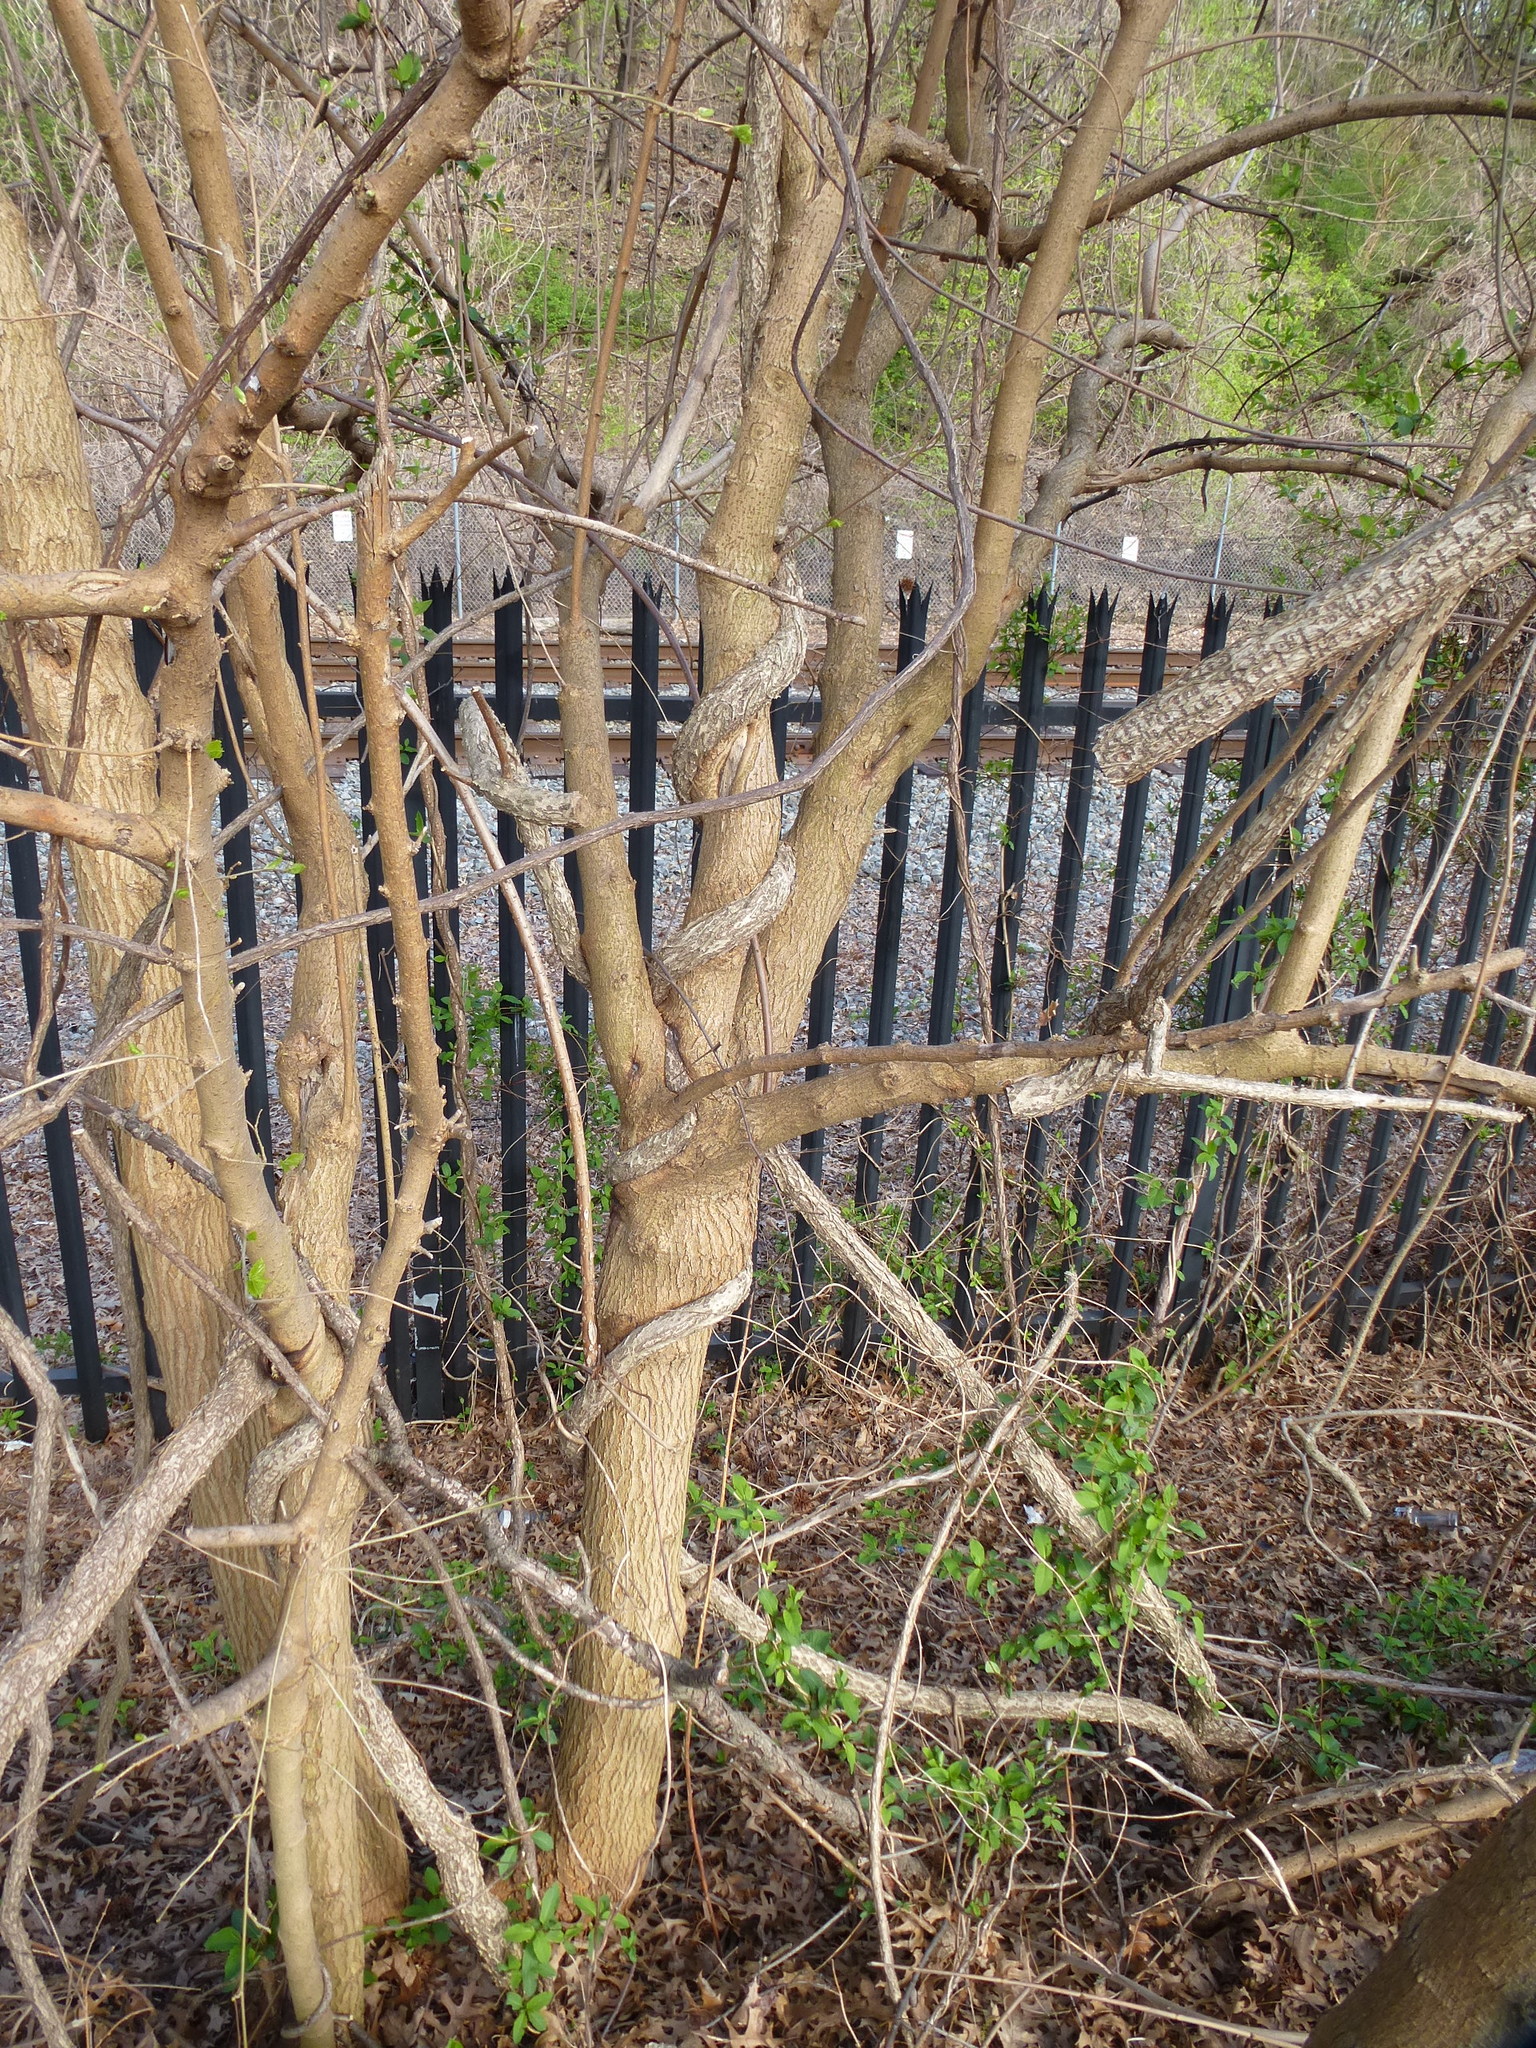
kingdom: Plantae
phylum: Tracheophyta
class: Magnoliopsida
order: Asterales
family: Asteraceae
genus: Arctium
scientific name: Arctium
